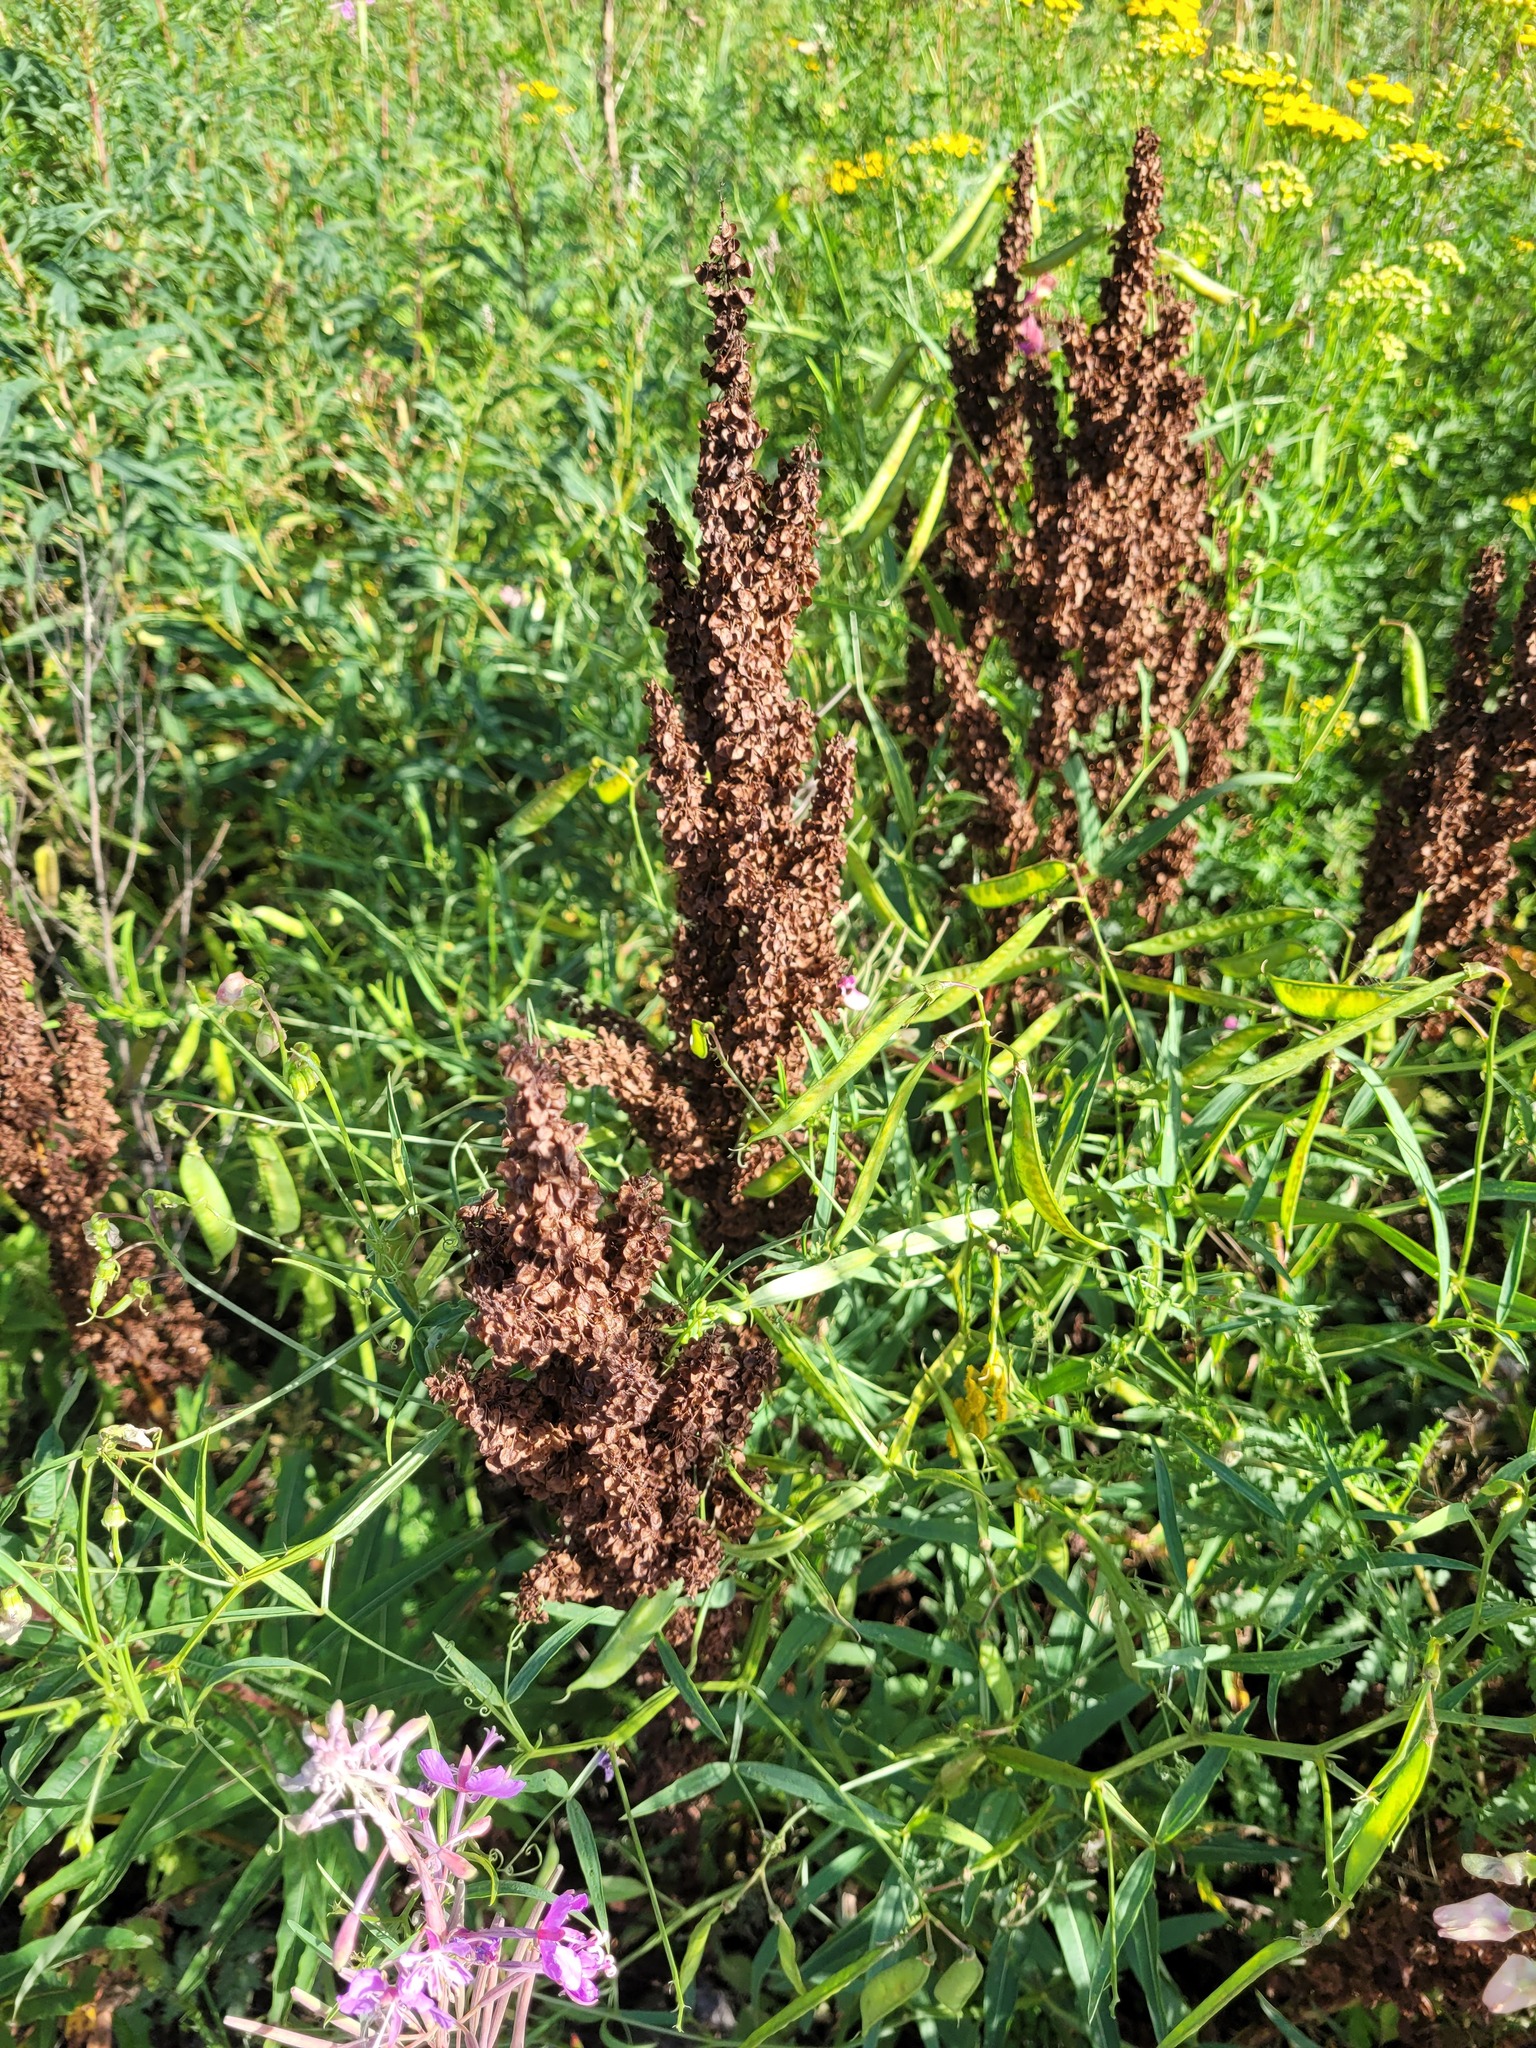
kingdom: Plantae
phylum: Tracheophyta
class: Magnoliopsida
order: Caryophyllales
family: Polygonaceae
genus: Rumex
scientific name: Rumex pseudonatronatus
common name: Field dock
